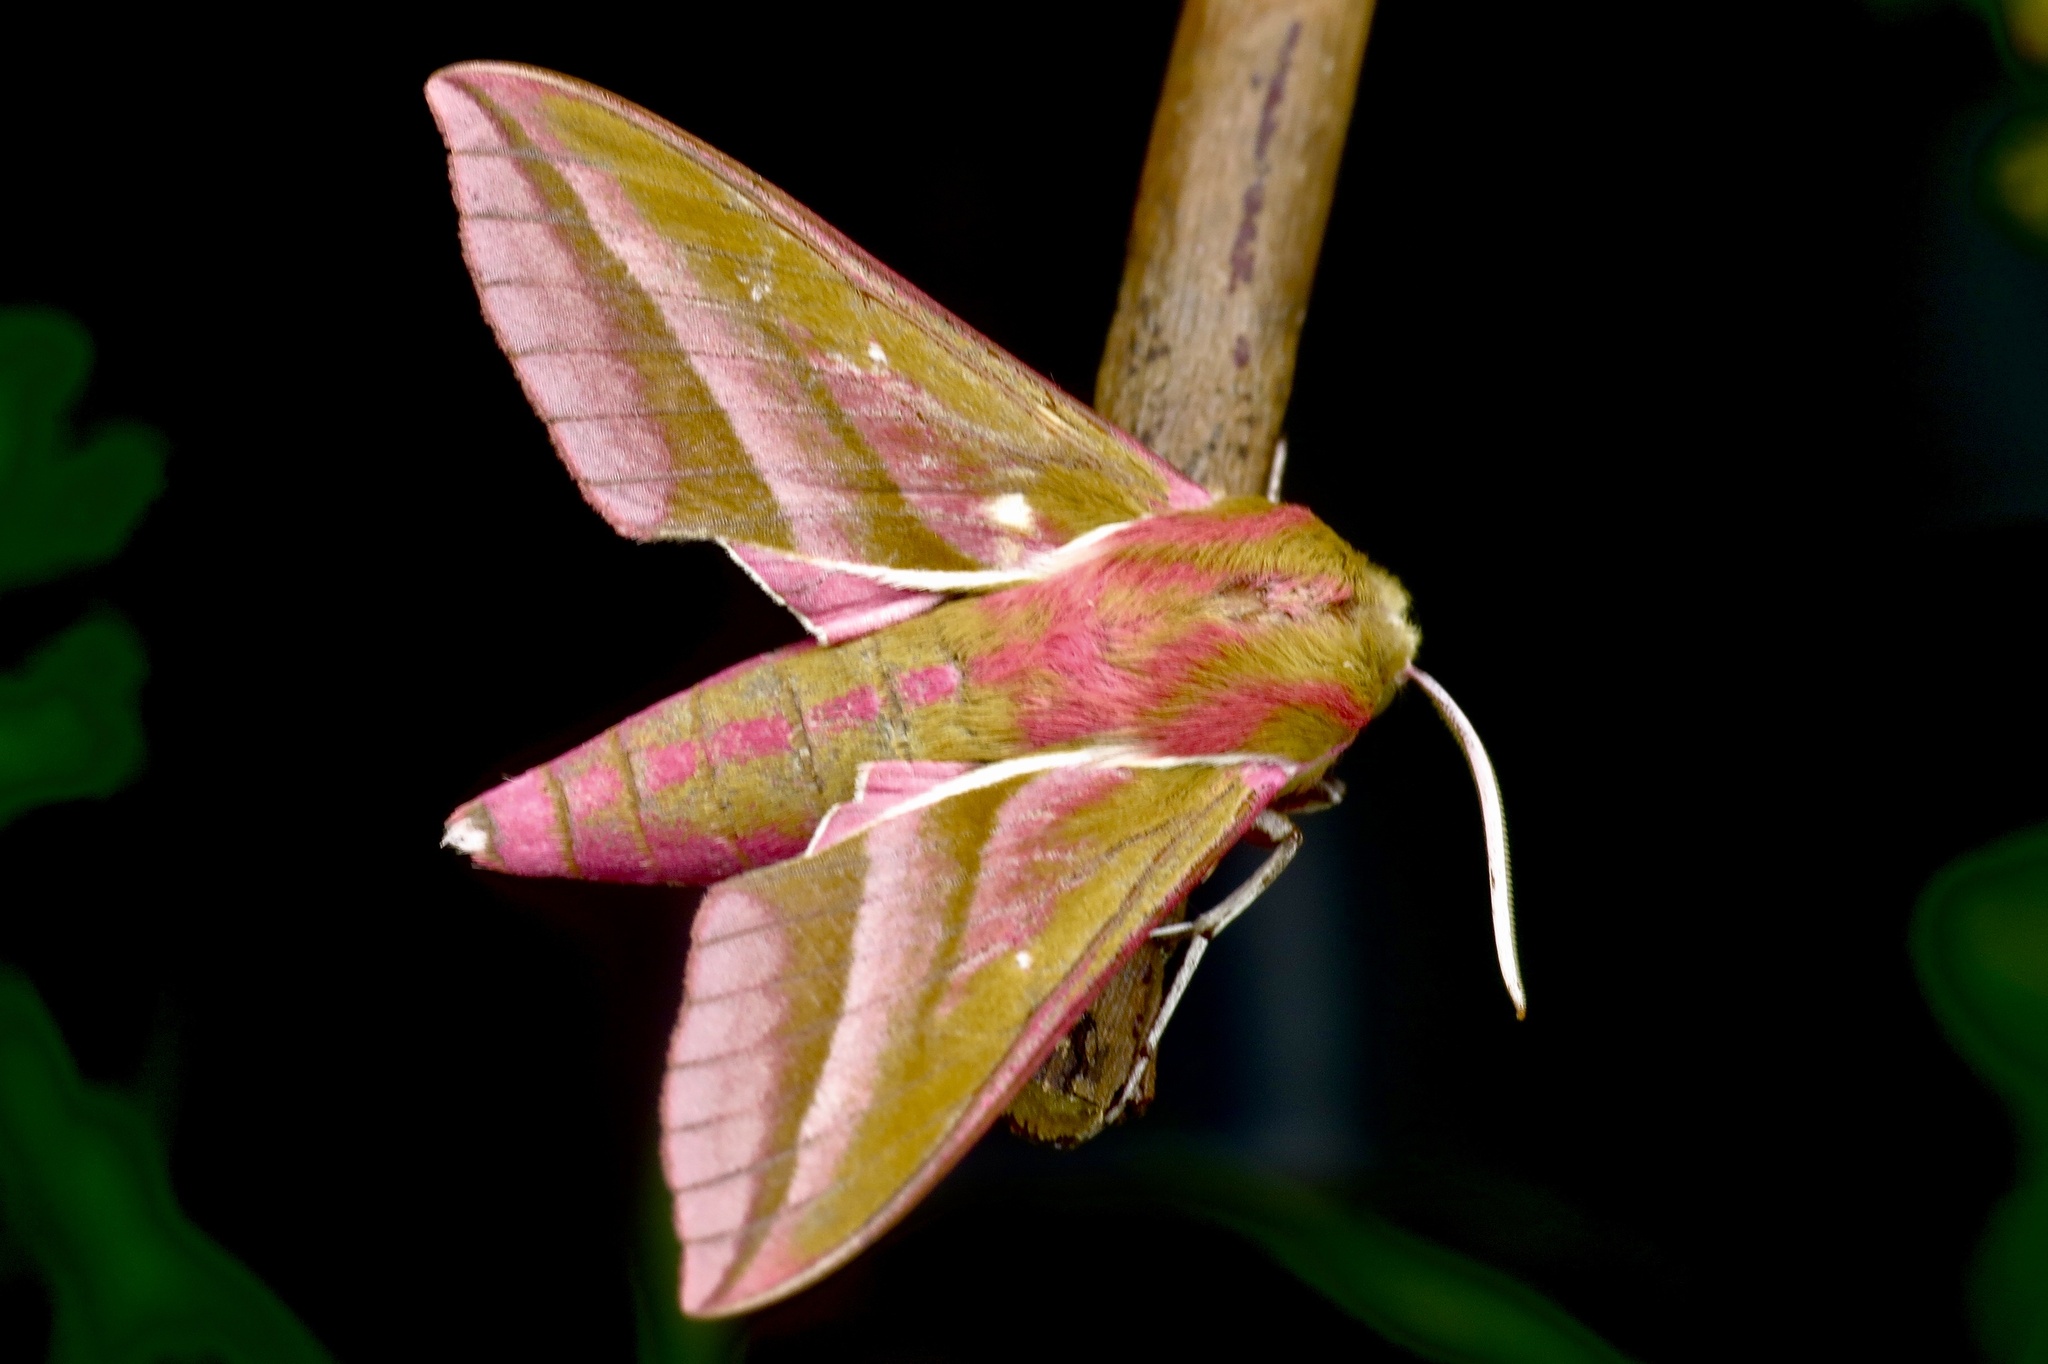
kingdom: Animalia
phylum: Arthropoda
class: Insecta
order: Lepidoptera
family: Sphingidae
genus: Deilephila
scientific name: Deilephila elpenor
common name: Elephant hawk-moth
